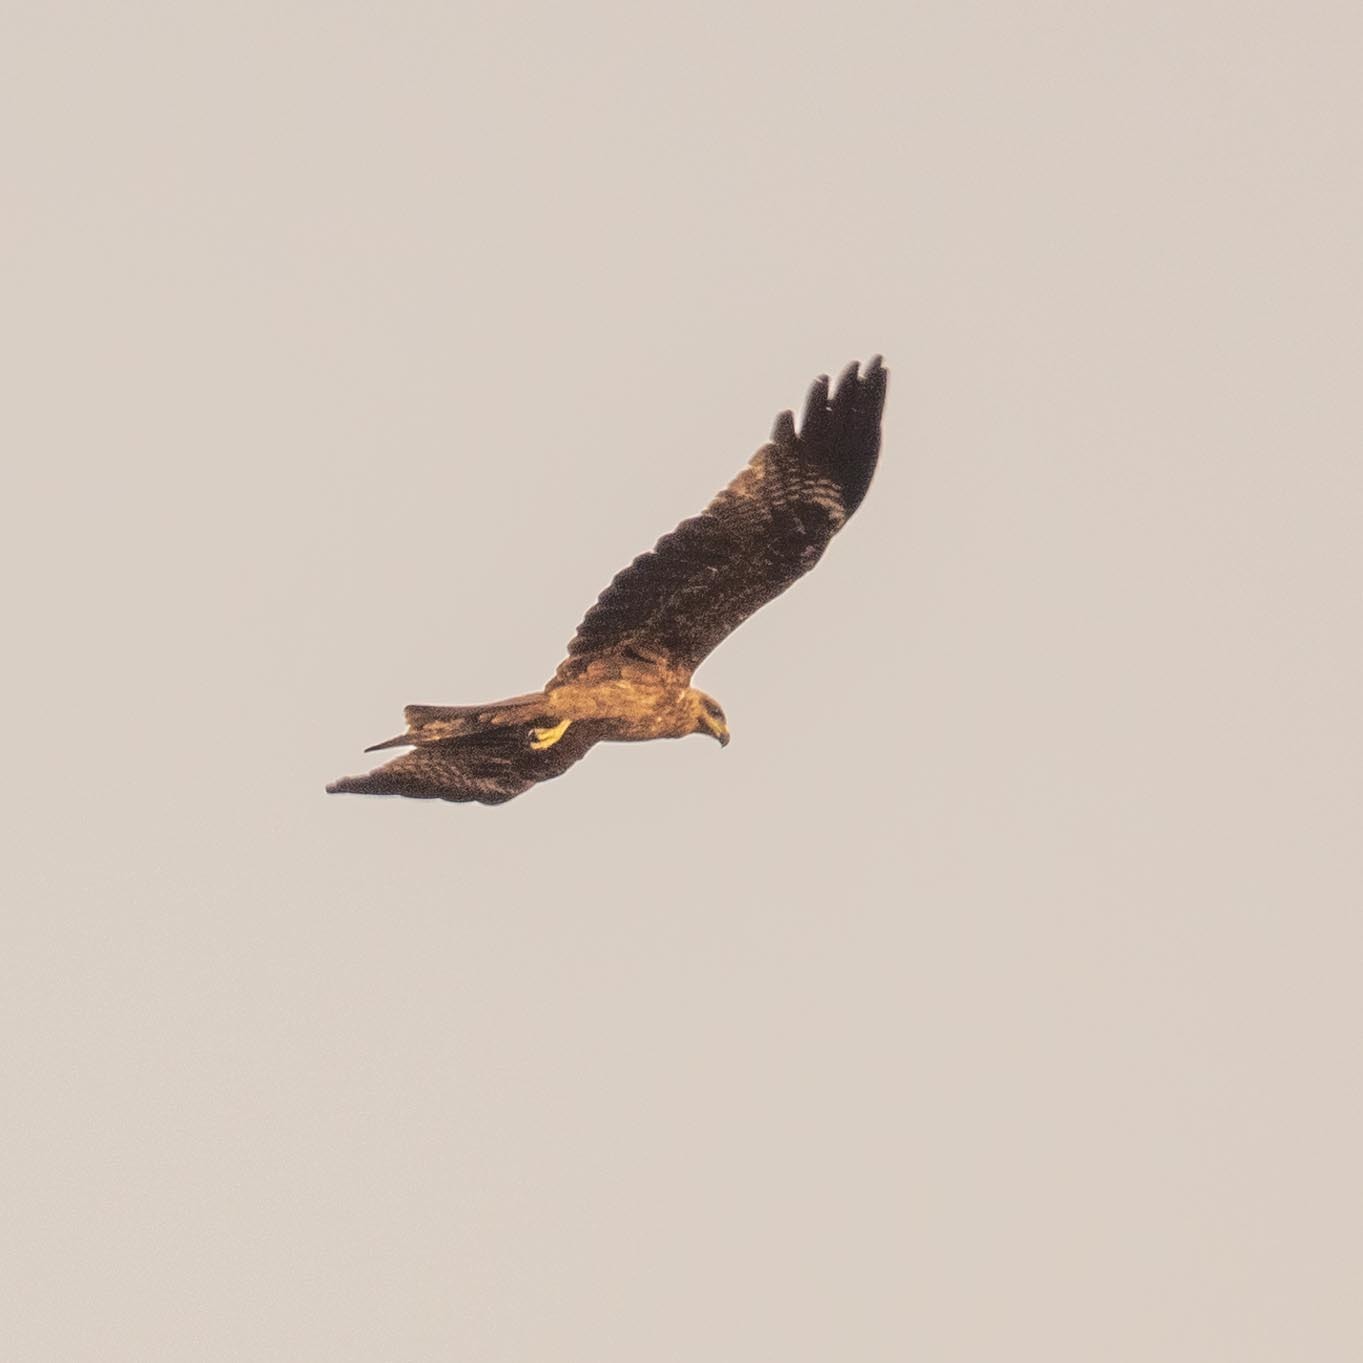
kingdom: Animalia
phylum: Chordata
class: Aves
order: Accipitriformes
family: Accipitridae
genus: Milvus
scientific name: Milvus migrans
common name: Black kite
